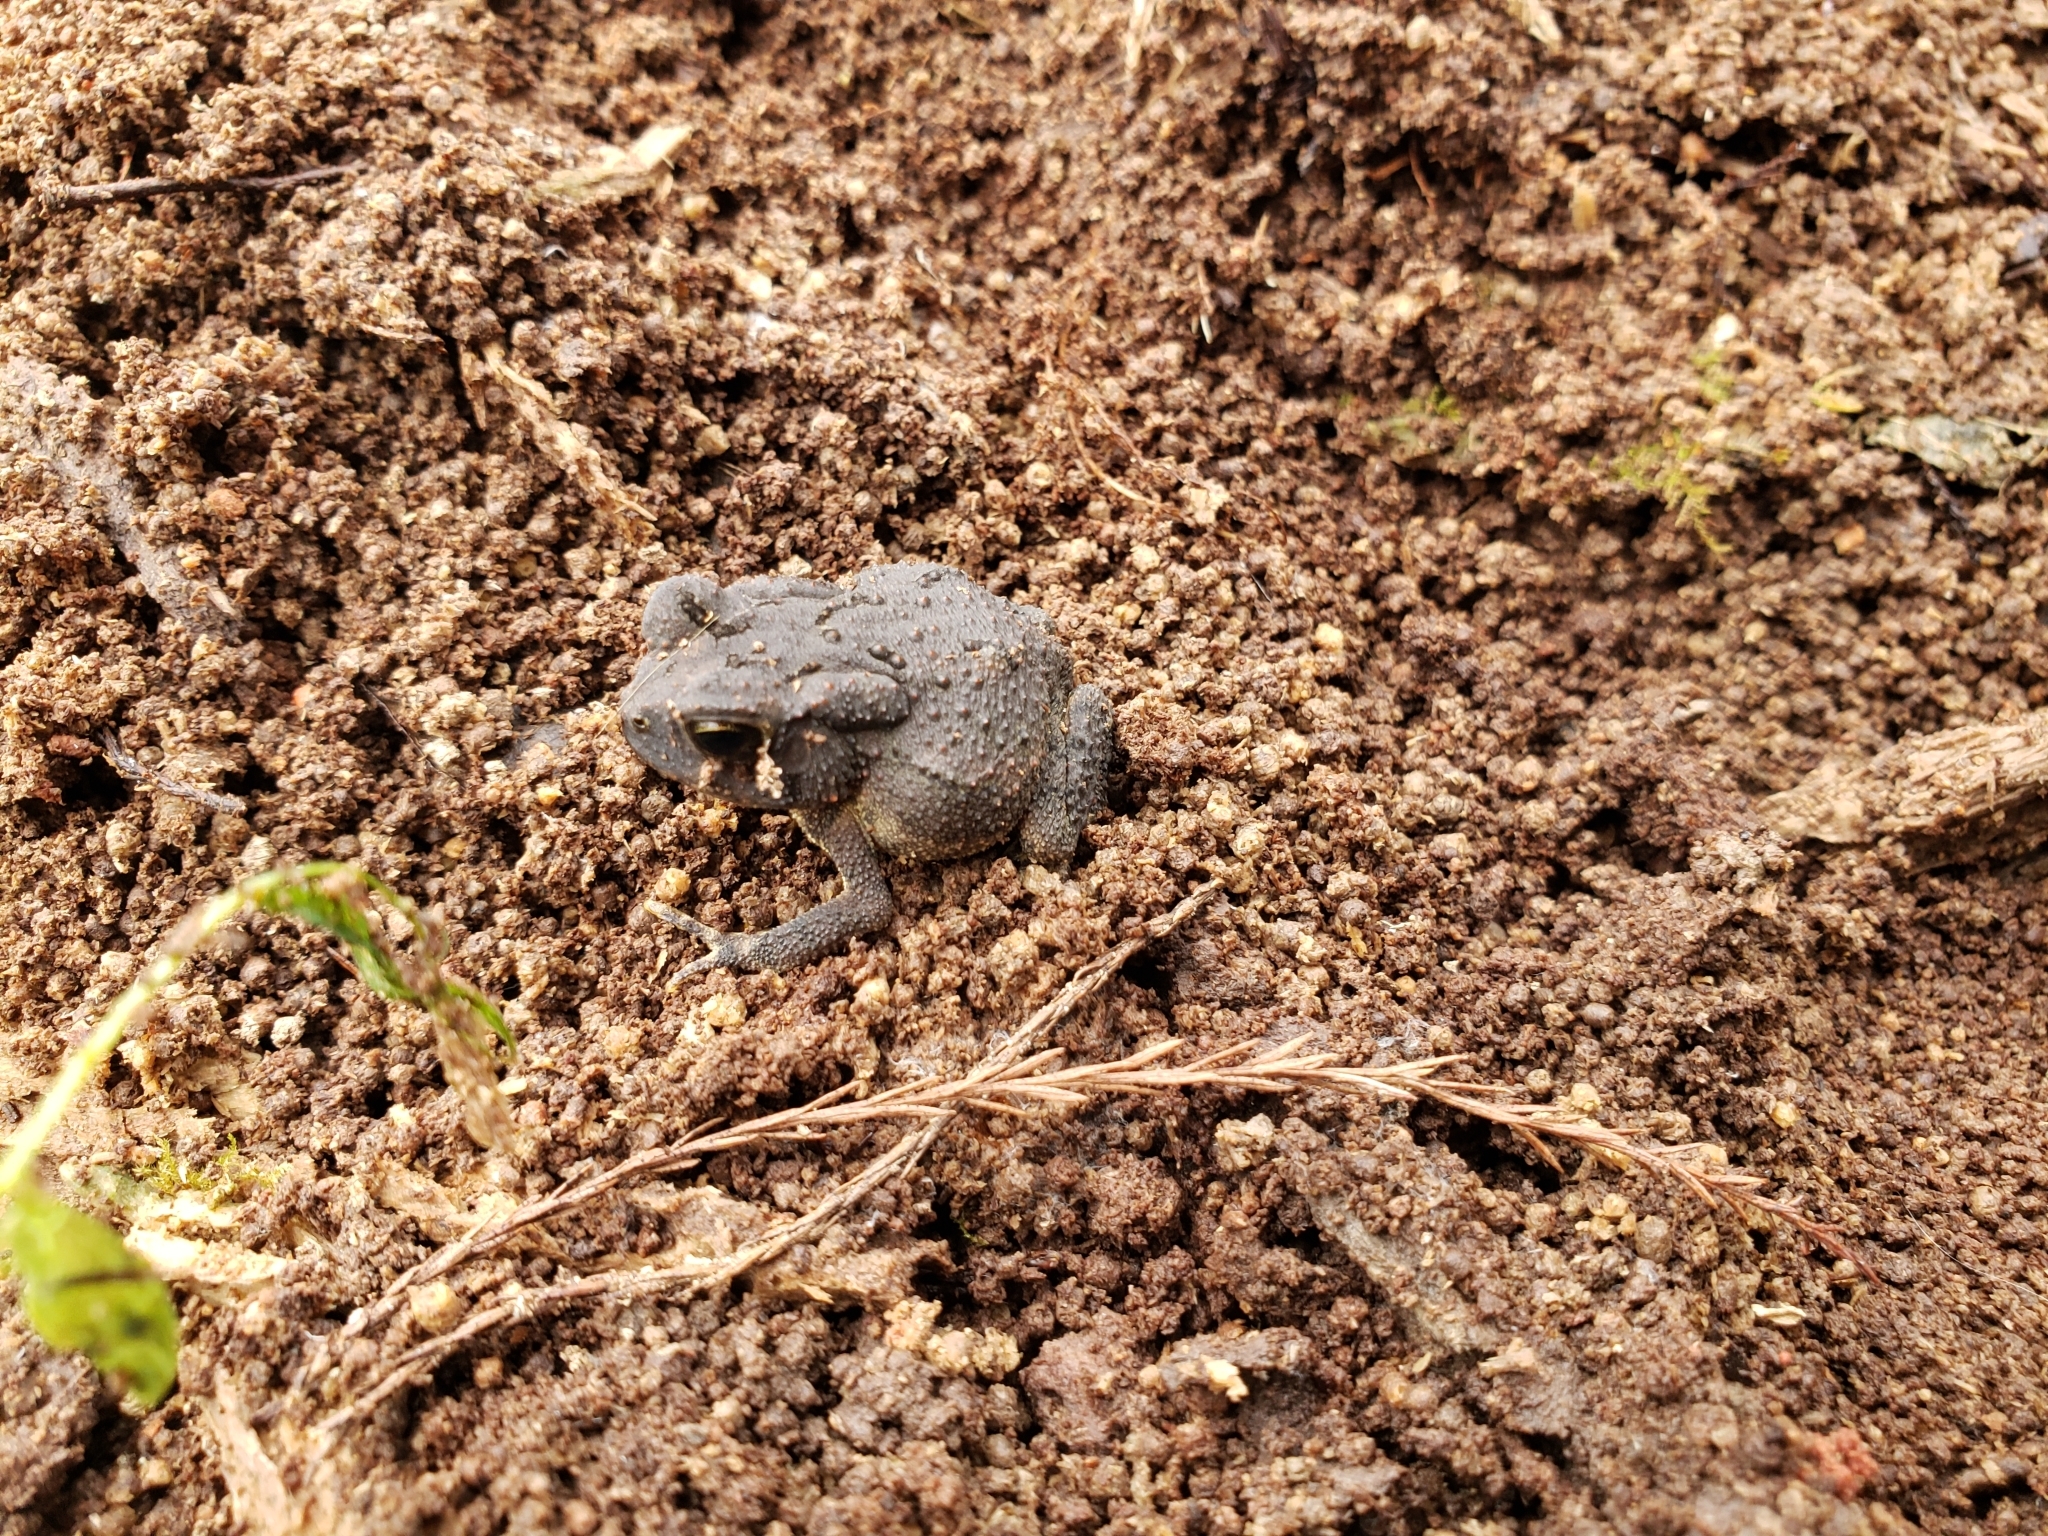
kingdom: Animalia
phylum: Chordata
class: Amphibia
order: Anura
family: Bufonidae
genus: Anaxyrus
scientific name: Anaxyrus fowleri
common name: Fowler's toad
